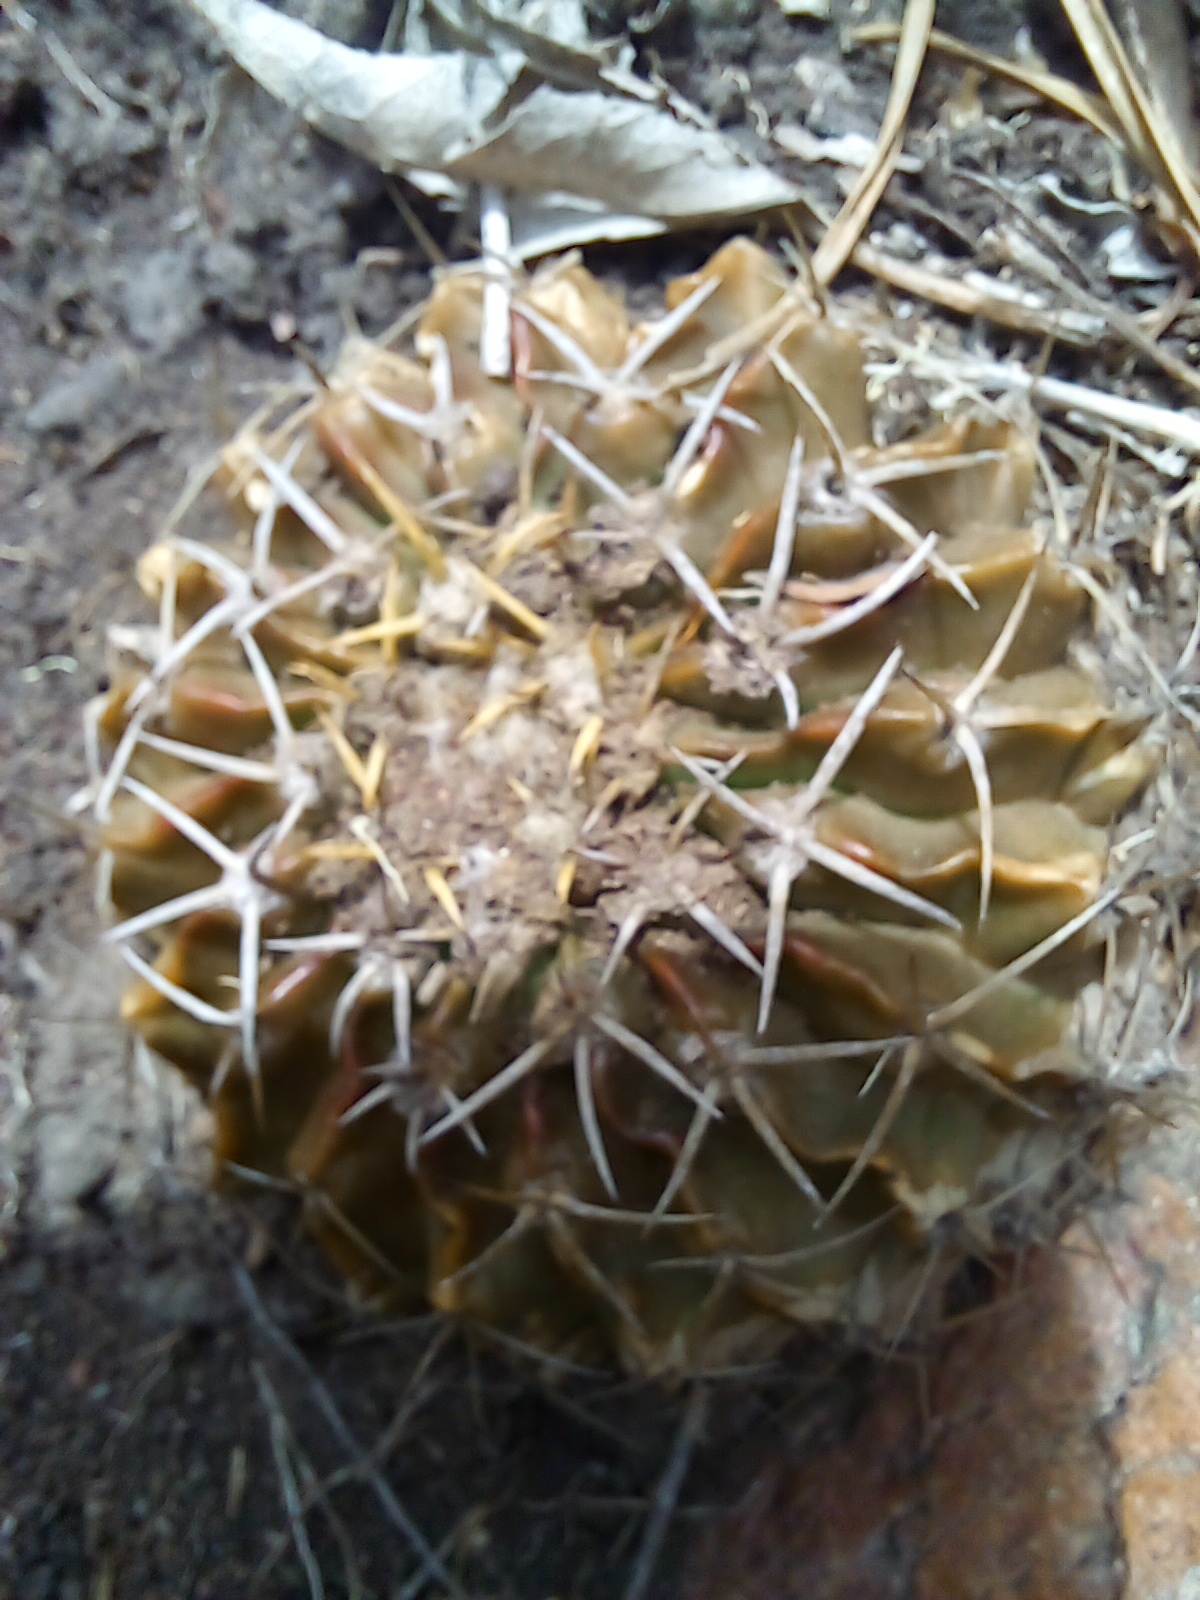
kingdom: Plantae
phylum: Tracheophyta
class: Magnoliopsida
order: Caryophyllales
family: Cactaceae
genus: Parodia
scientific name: Parodia erinacea
